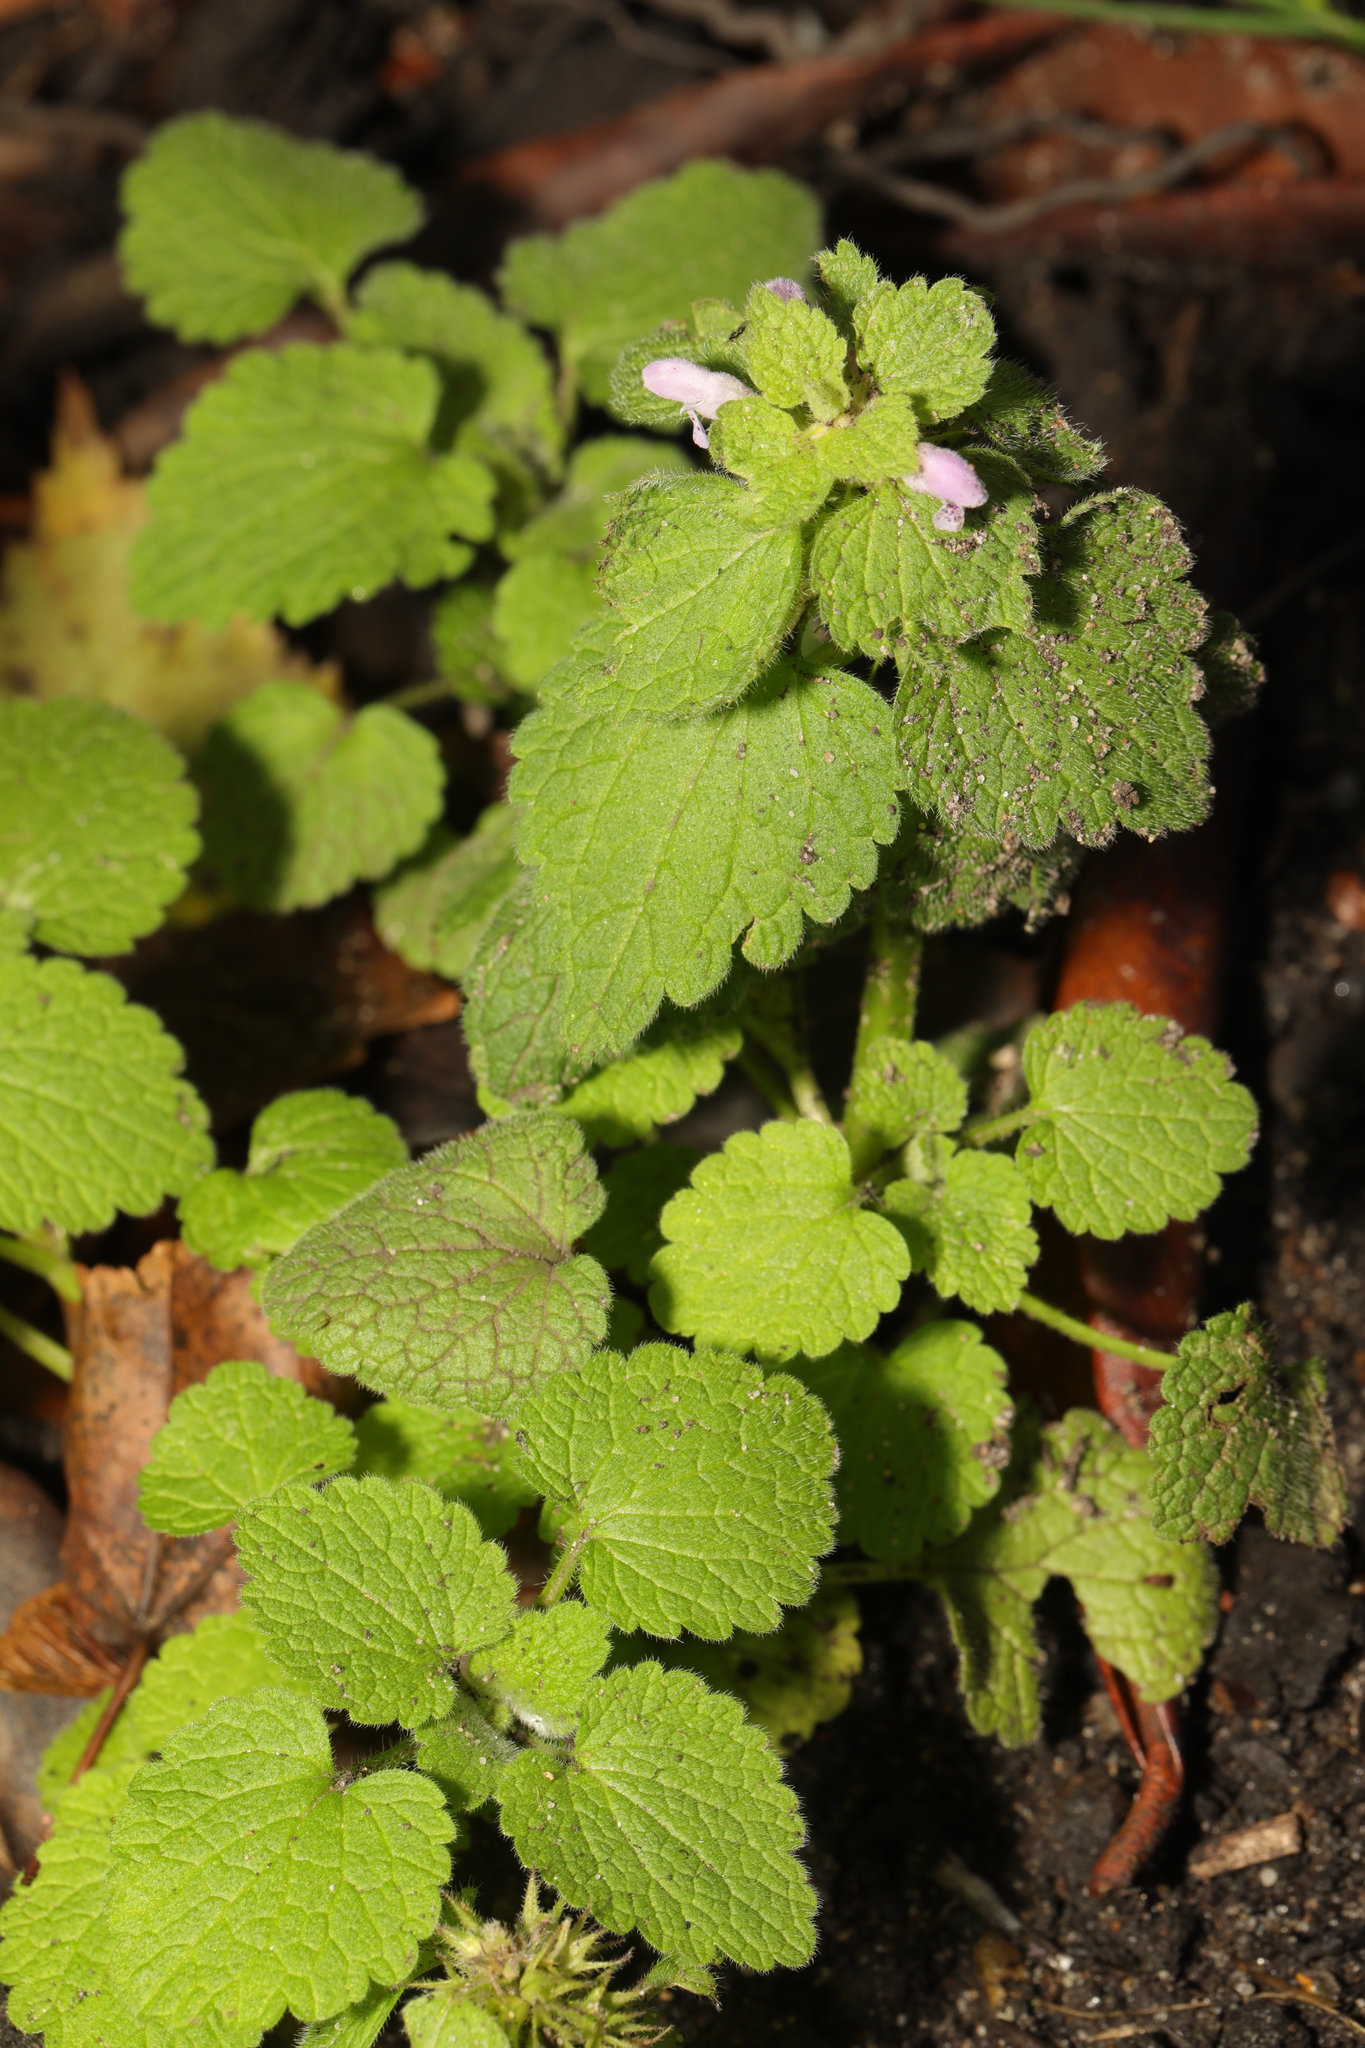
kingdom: Plantae
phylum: Tracheophyta
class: Magnoliopsida
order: Lamiales
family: Lamiaceae
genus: Lamium
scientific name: Lamium purpureum
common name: Red dead-nettle
